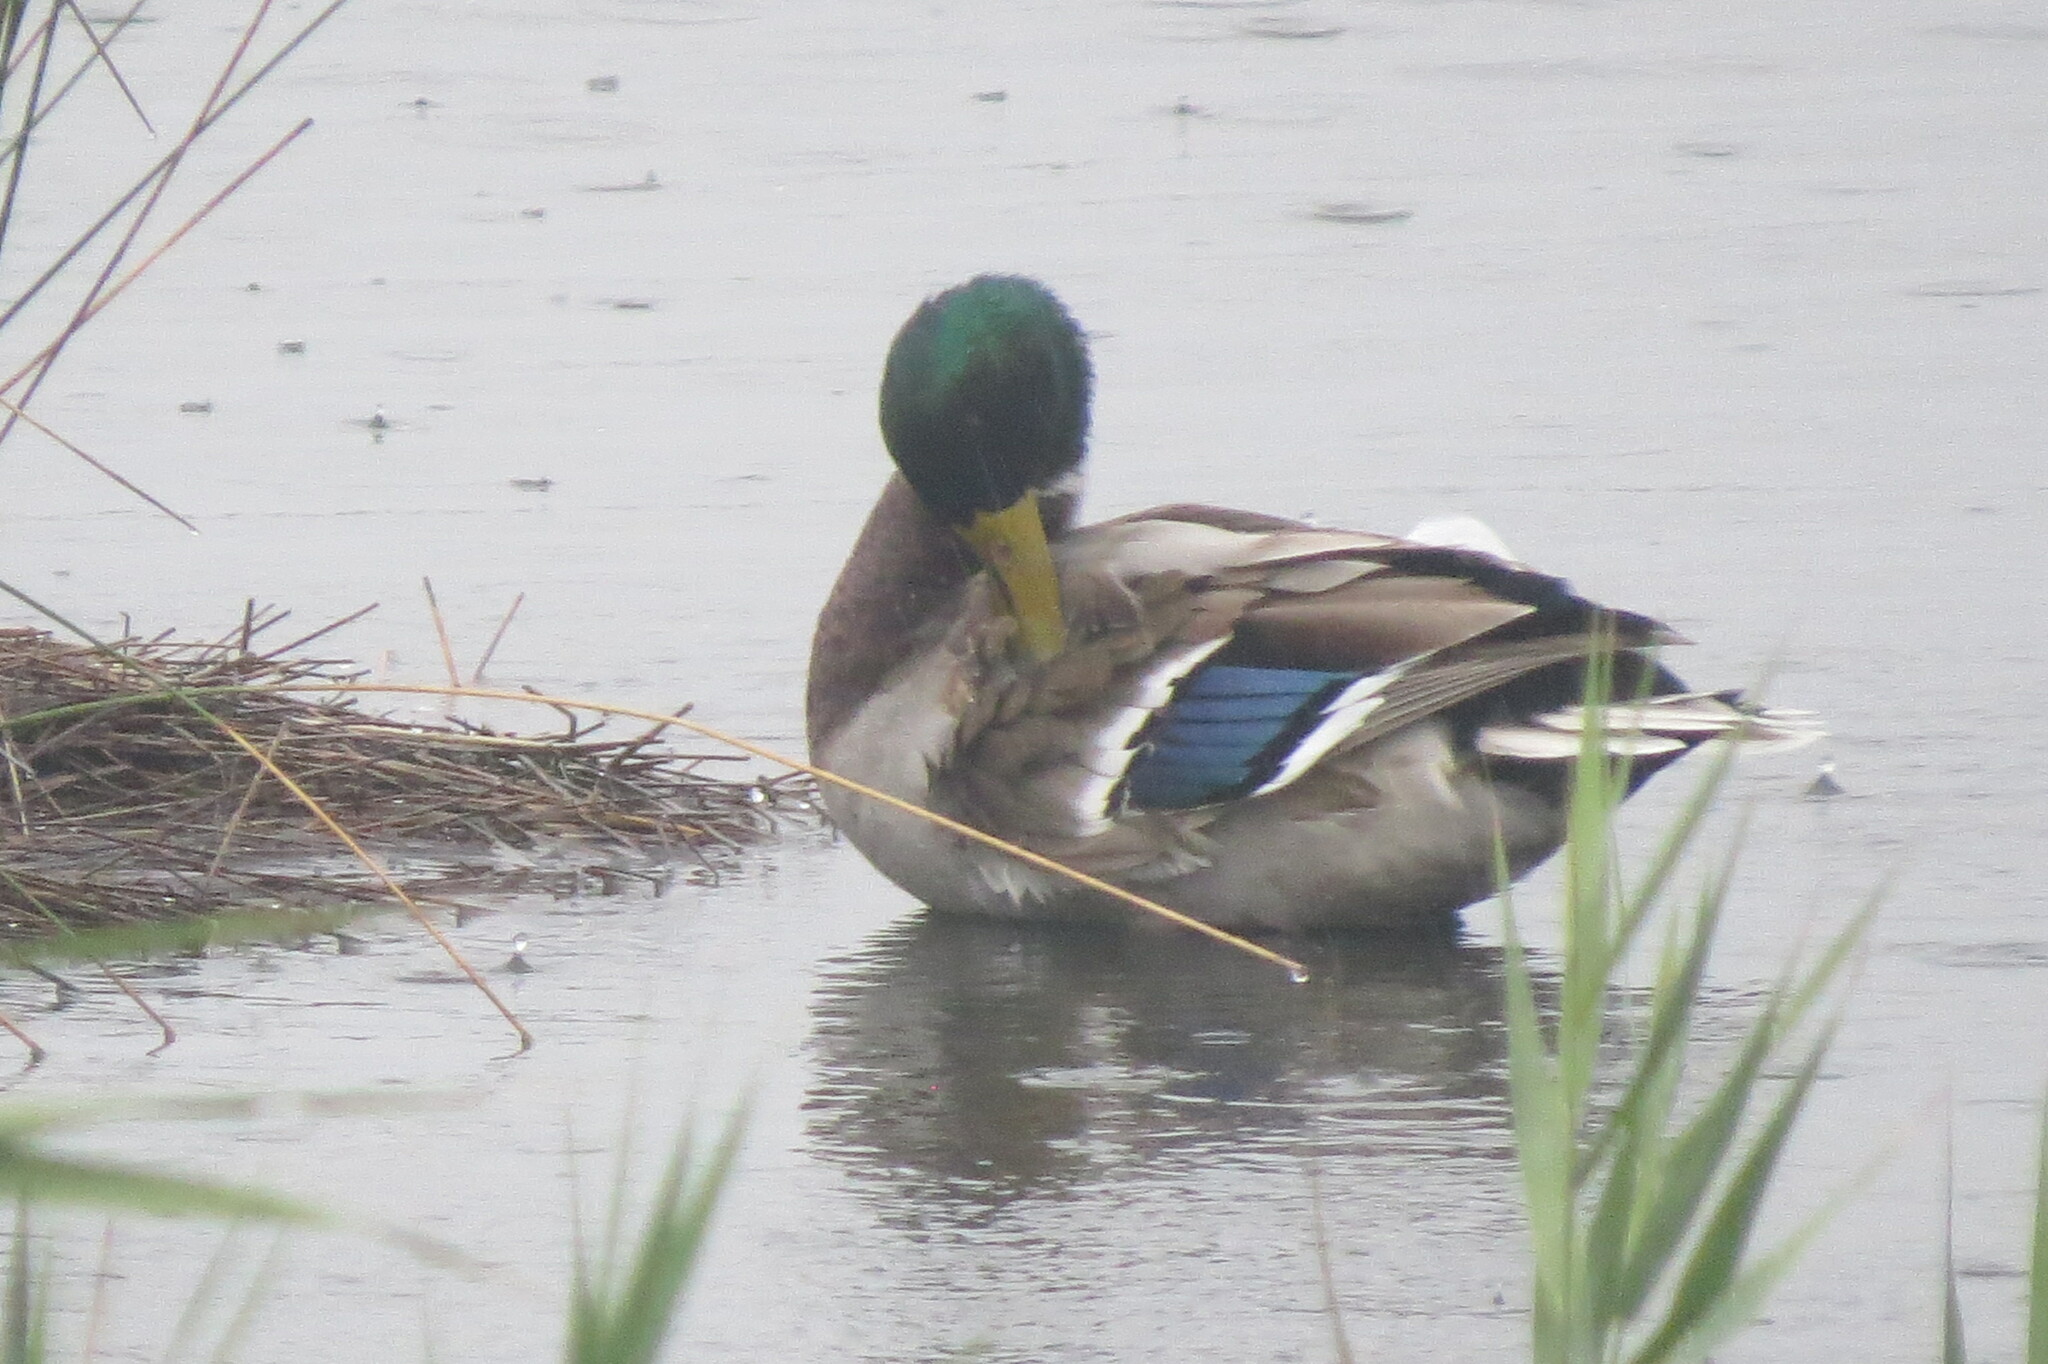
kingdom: Animalia
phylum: Chordata
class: Aves
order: Anseriformes
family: Anatidae
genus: Anas
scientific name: Anas platyrhynchos
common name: Mallard
